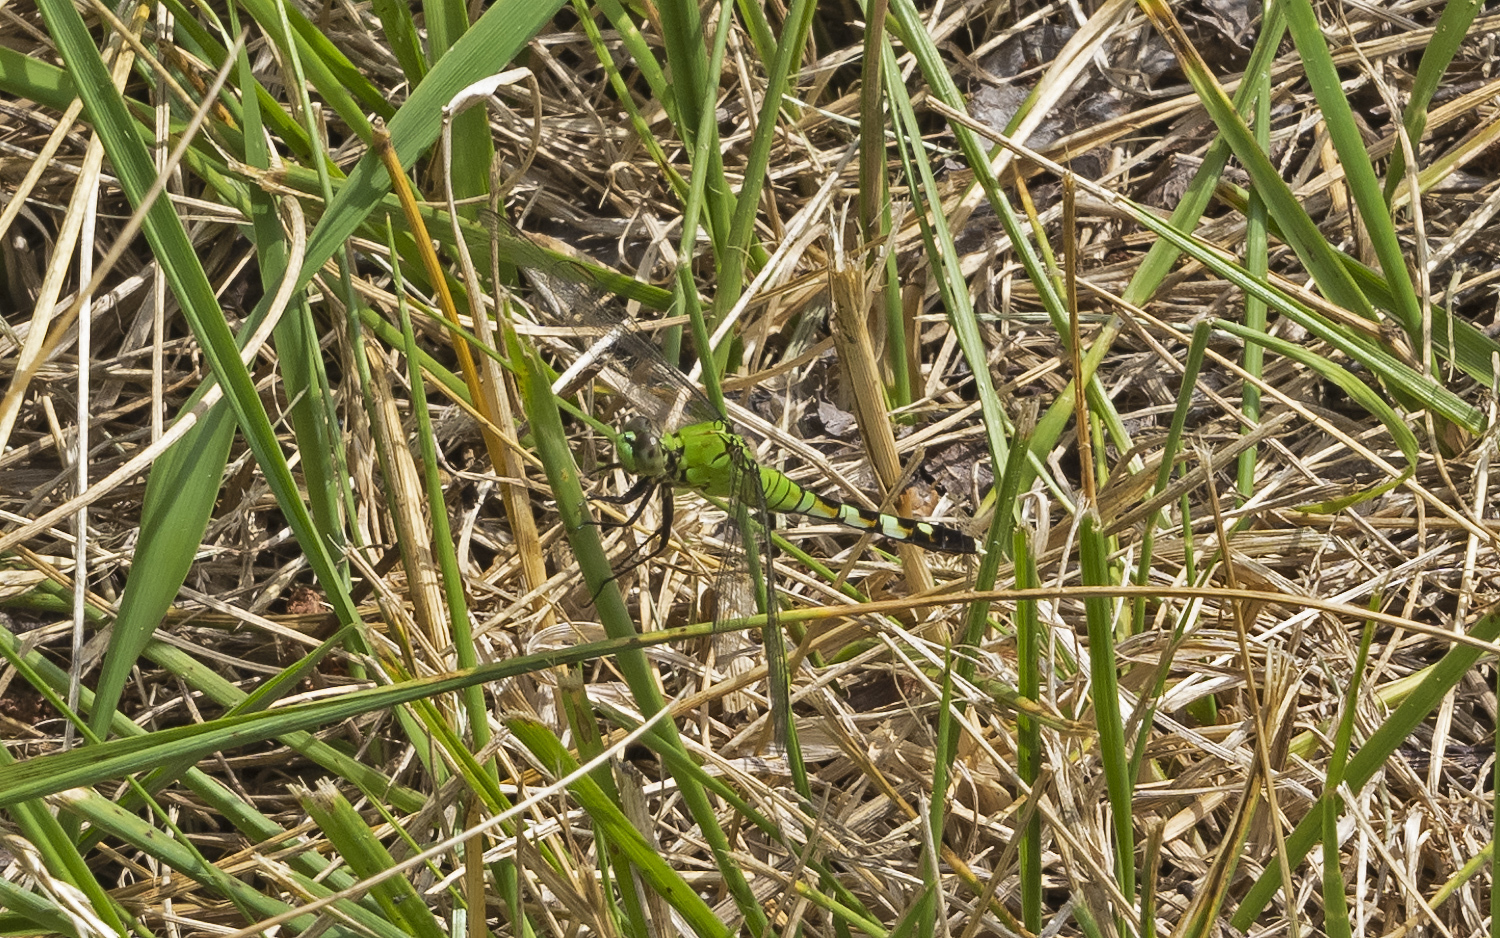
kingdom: Animalia
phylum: Arthropoda
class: Insecta
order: Odonata
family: Libellulidae
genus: Erythemis
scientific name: Erythemis simplicicollis
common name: Eastern pondhawk
